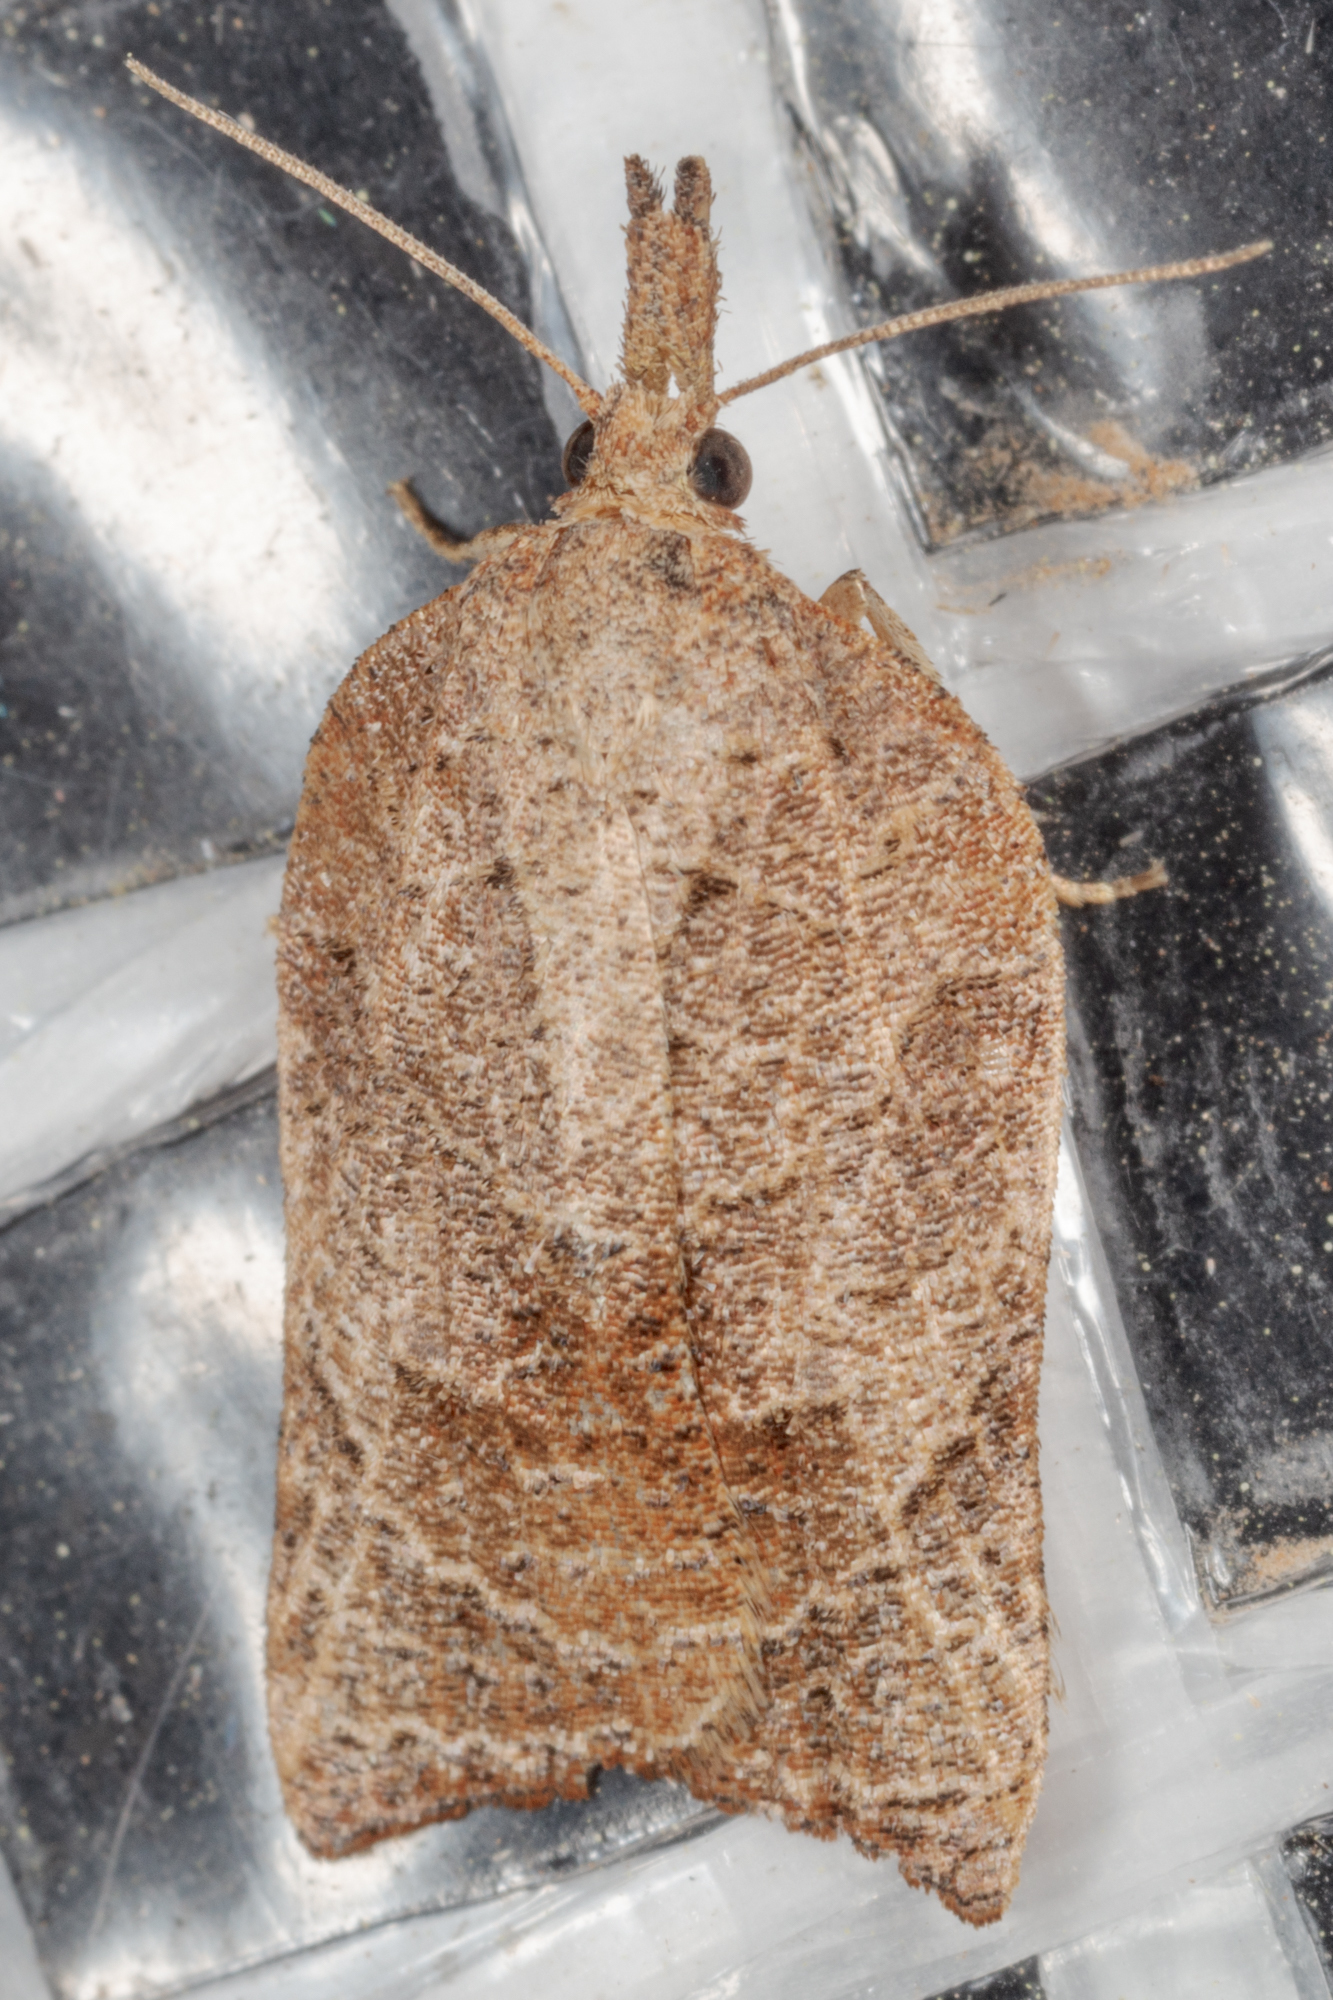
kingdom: Animalia
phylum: Arthropoda
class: Insecta
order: Lepidoptera
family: Tortricidae
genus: Platynota
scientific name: Platynota rostrana
